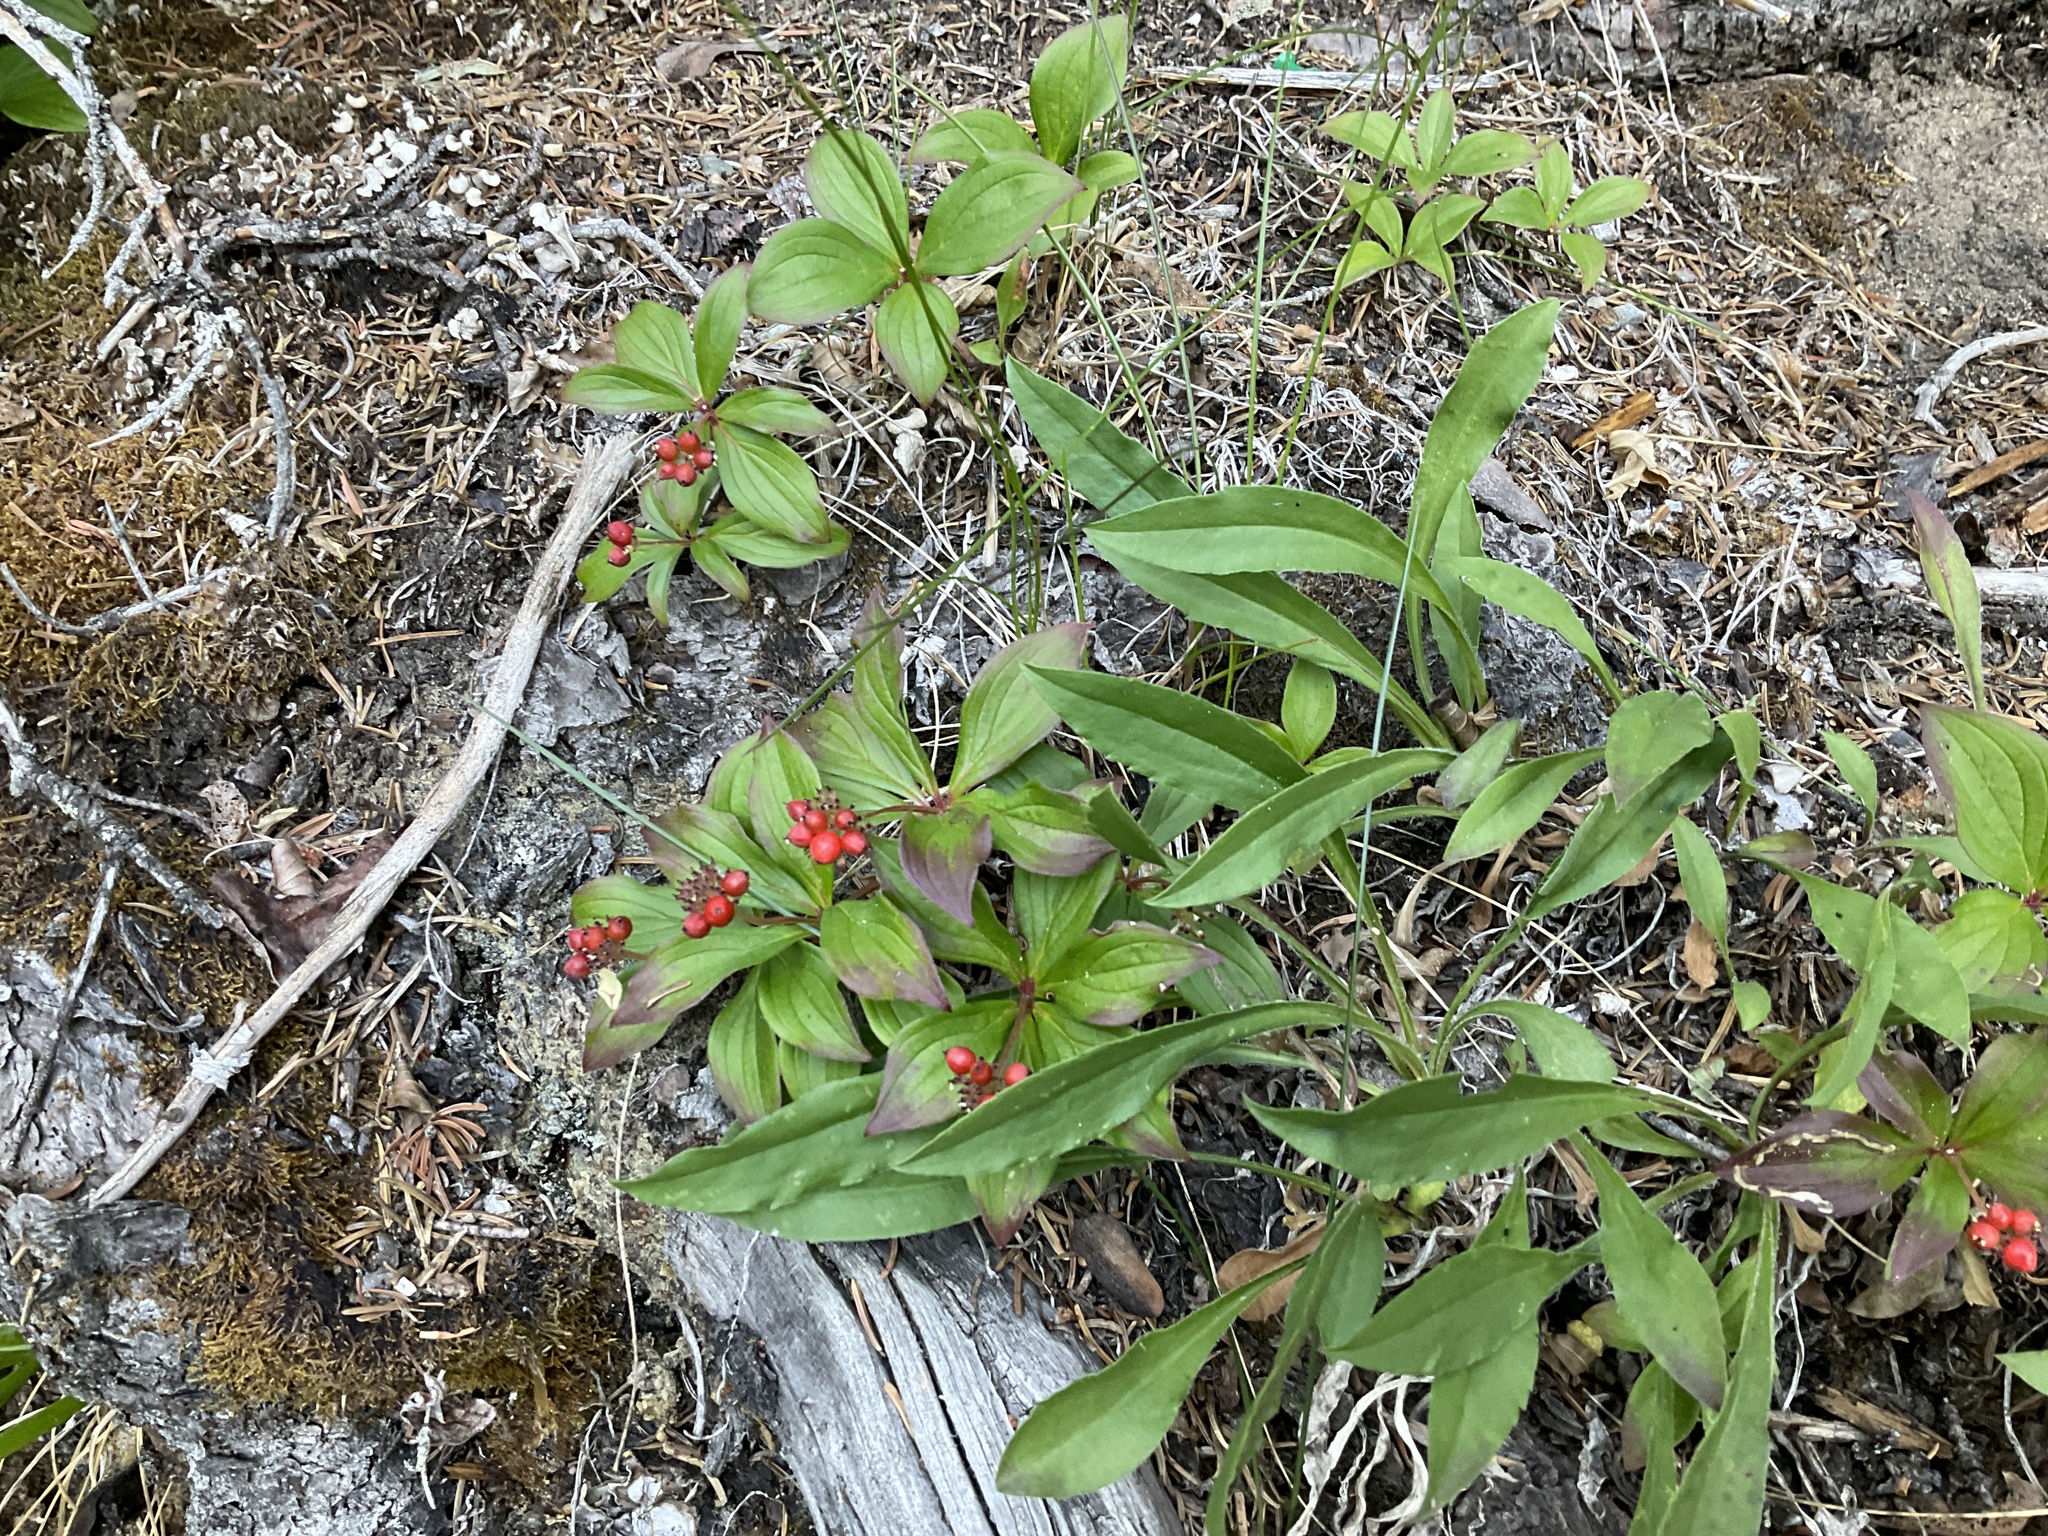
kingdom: Plantae
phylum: Tracheophyta
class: Magnoliopsida
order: Cornales
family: Cornaceae
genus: Cornus
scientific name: Cornus canadensis
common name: Creeping dogwood
